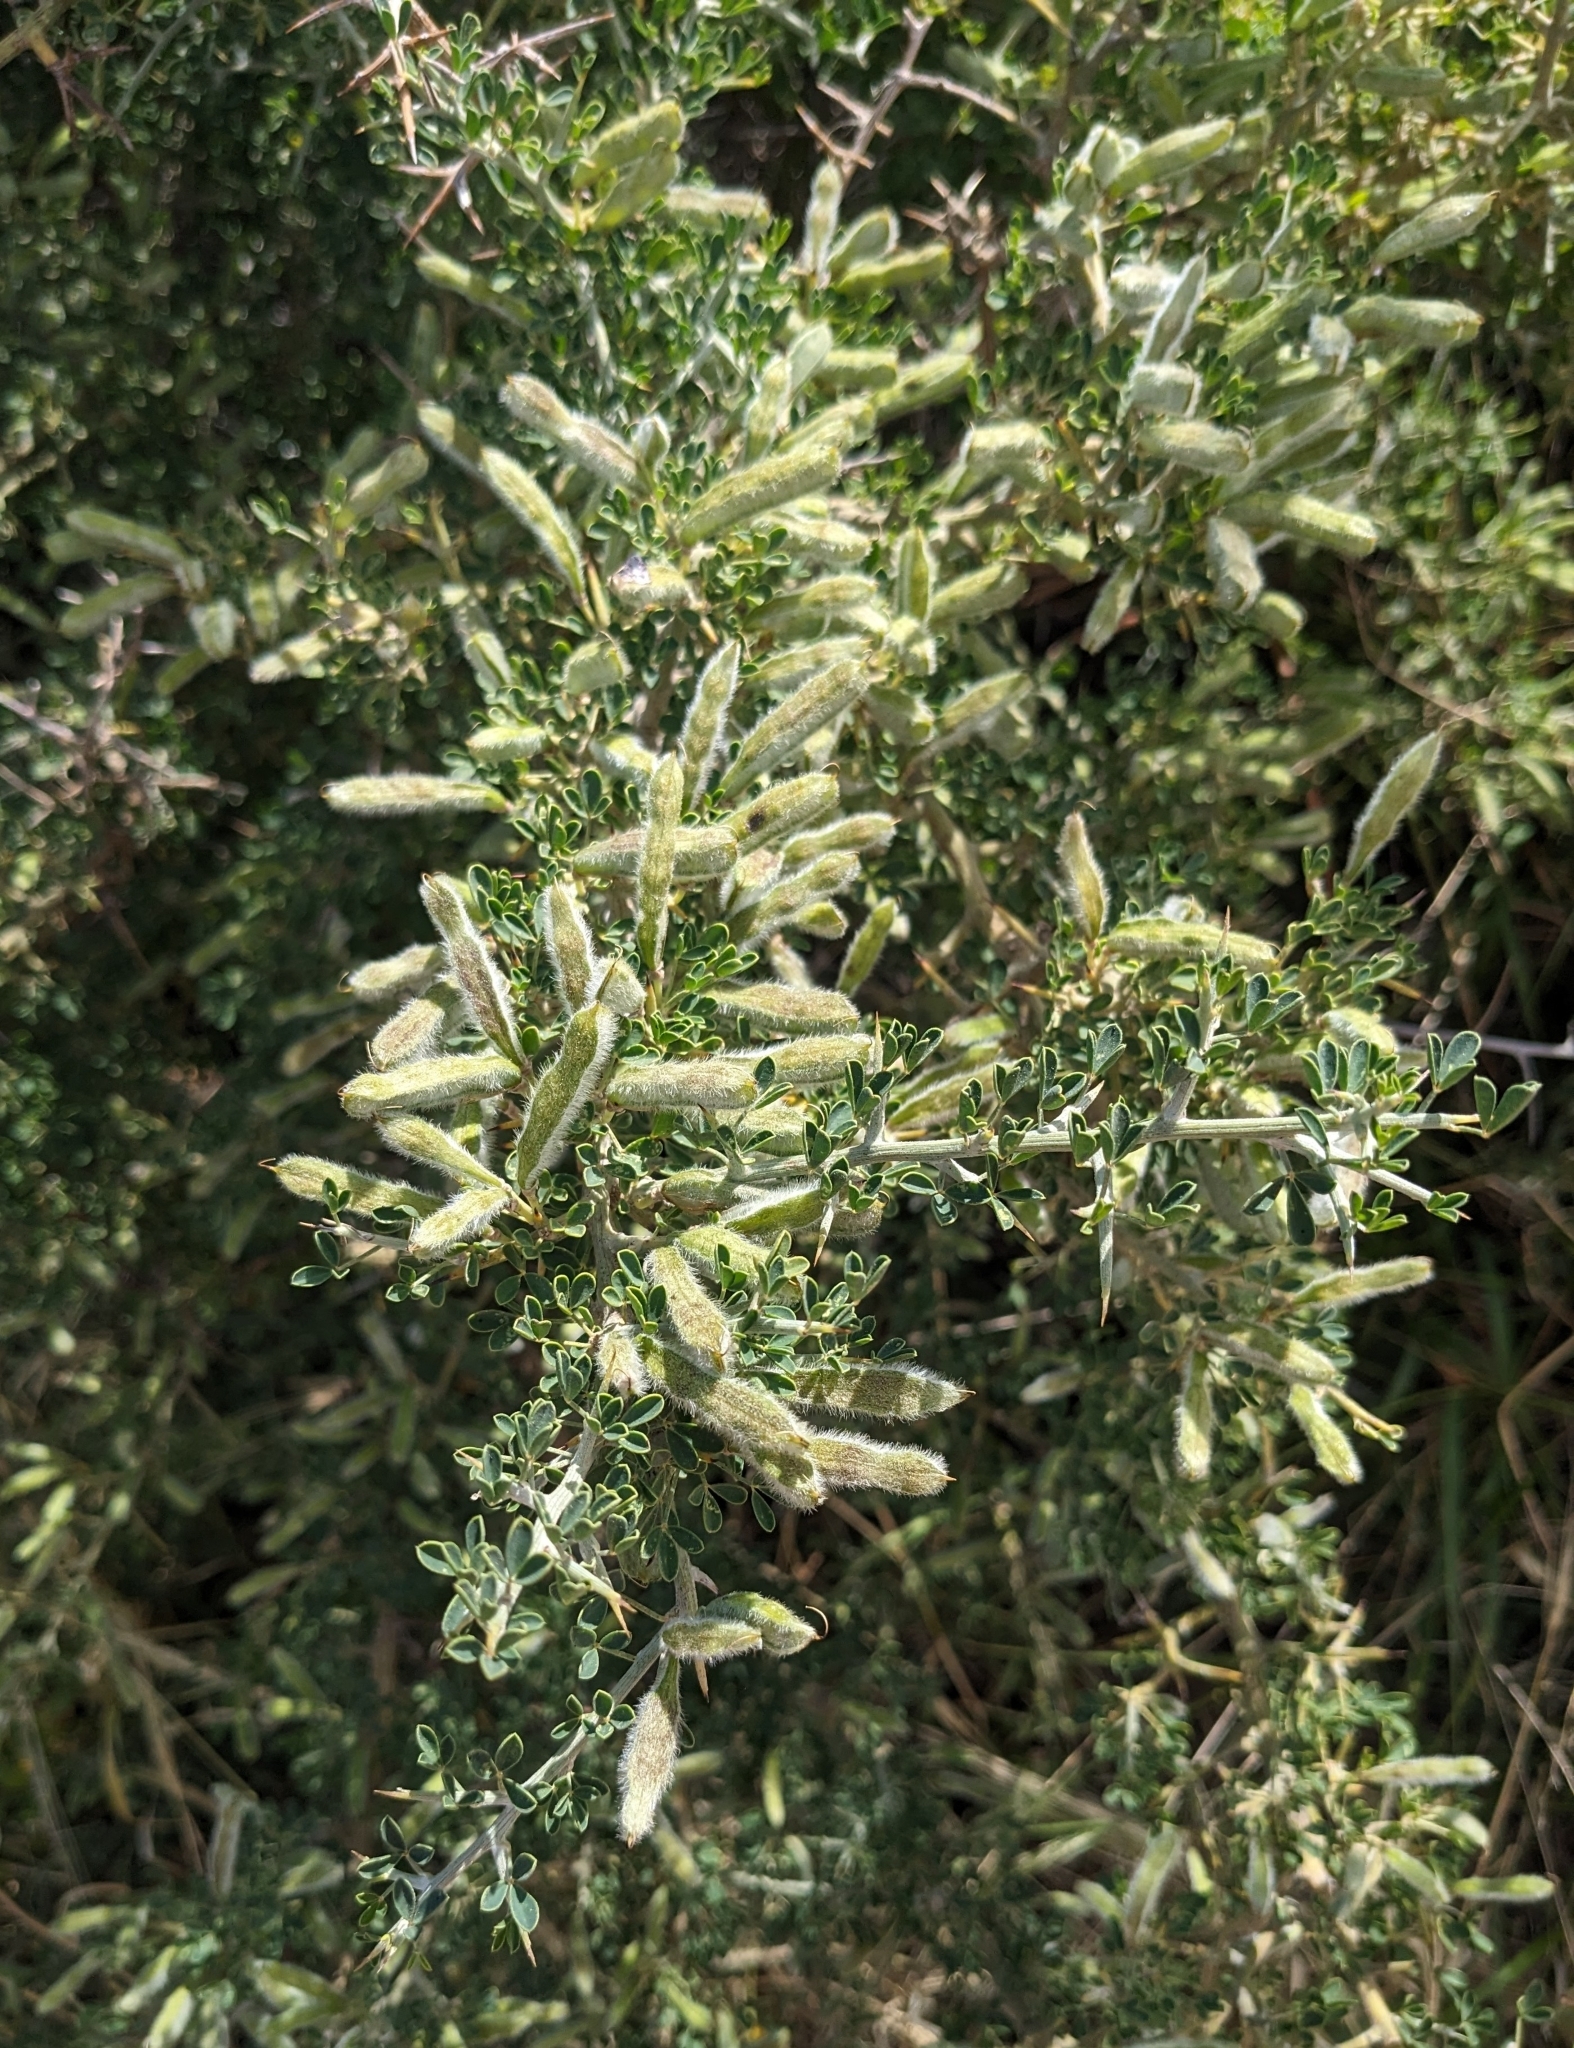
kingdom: Plantae
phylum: Tracheophyta
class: Magnoliopsida
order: Fabales
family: Fabaceae
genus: Calicotome
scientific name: Calicotome villosa
